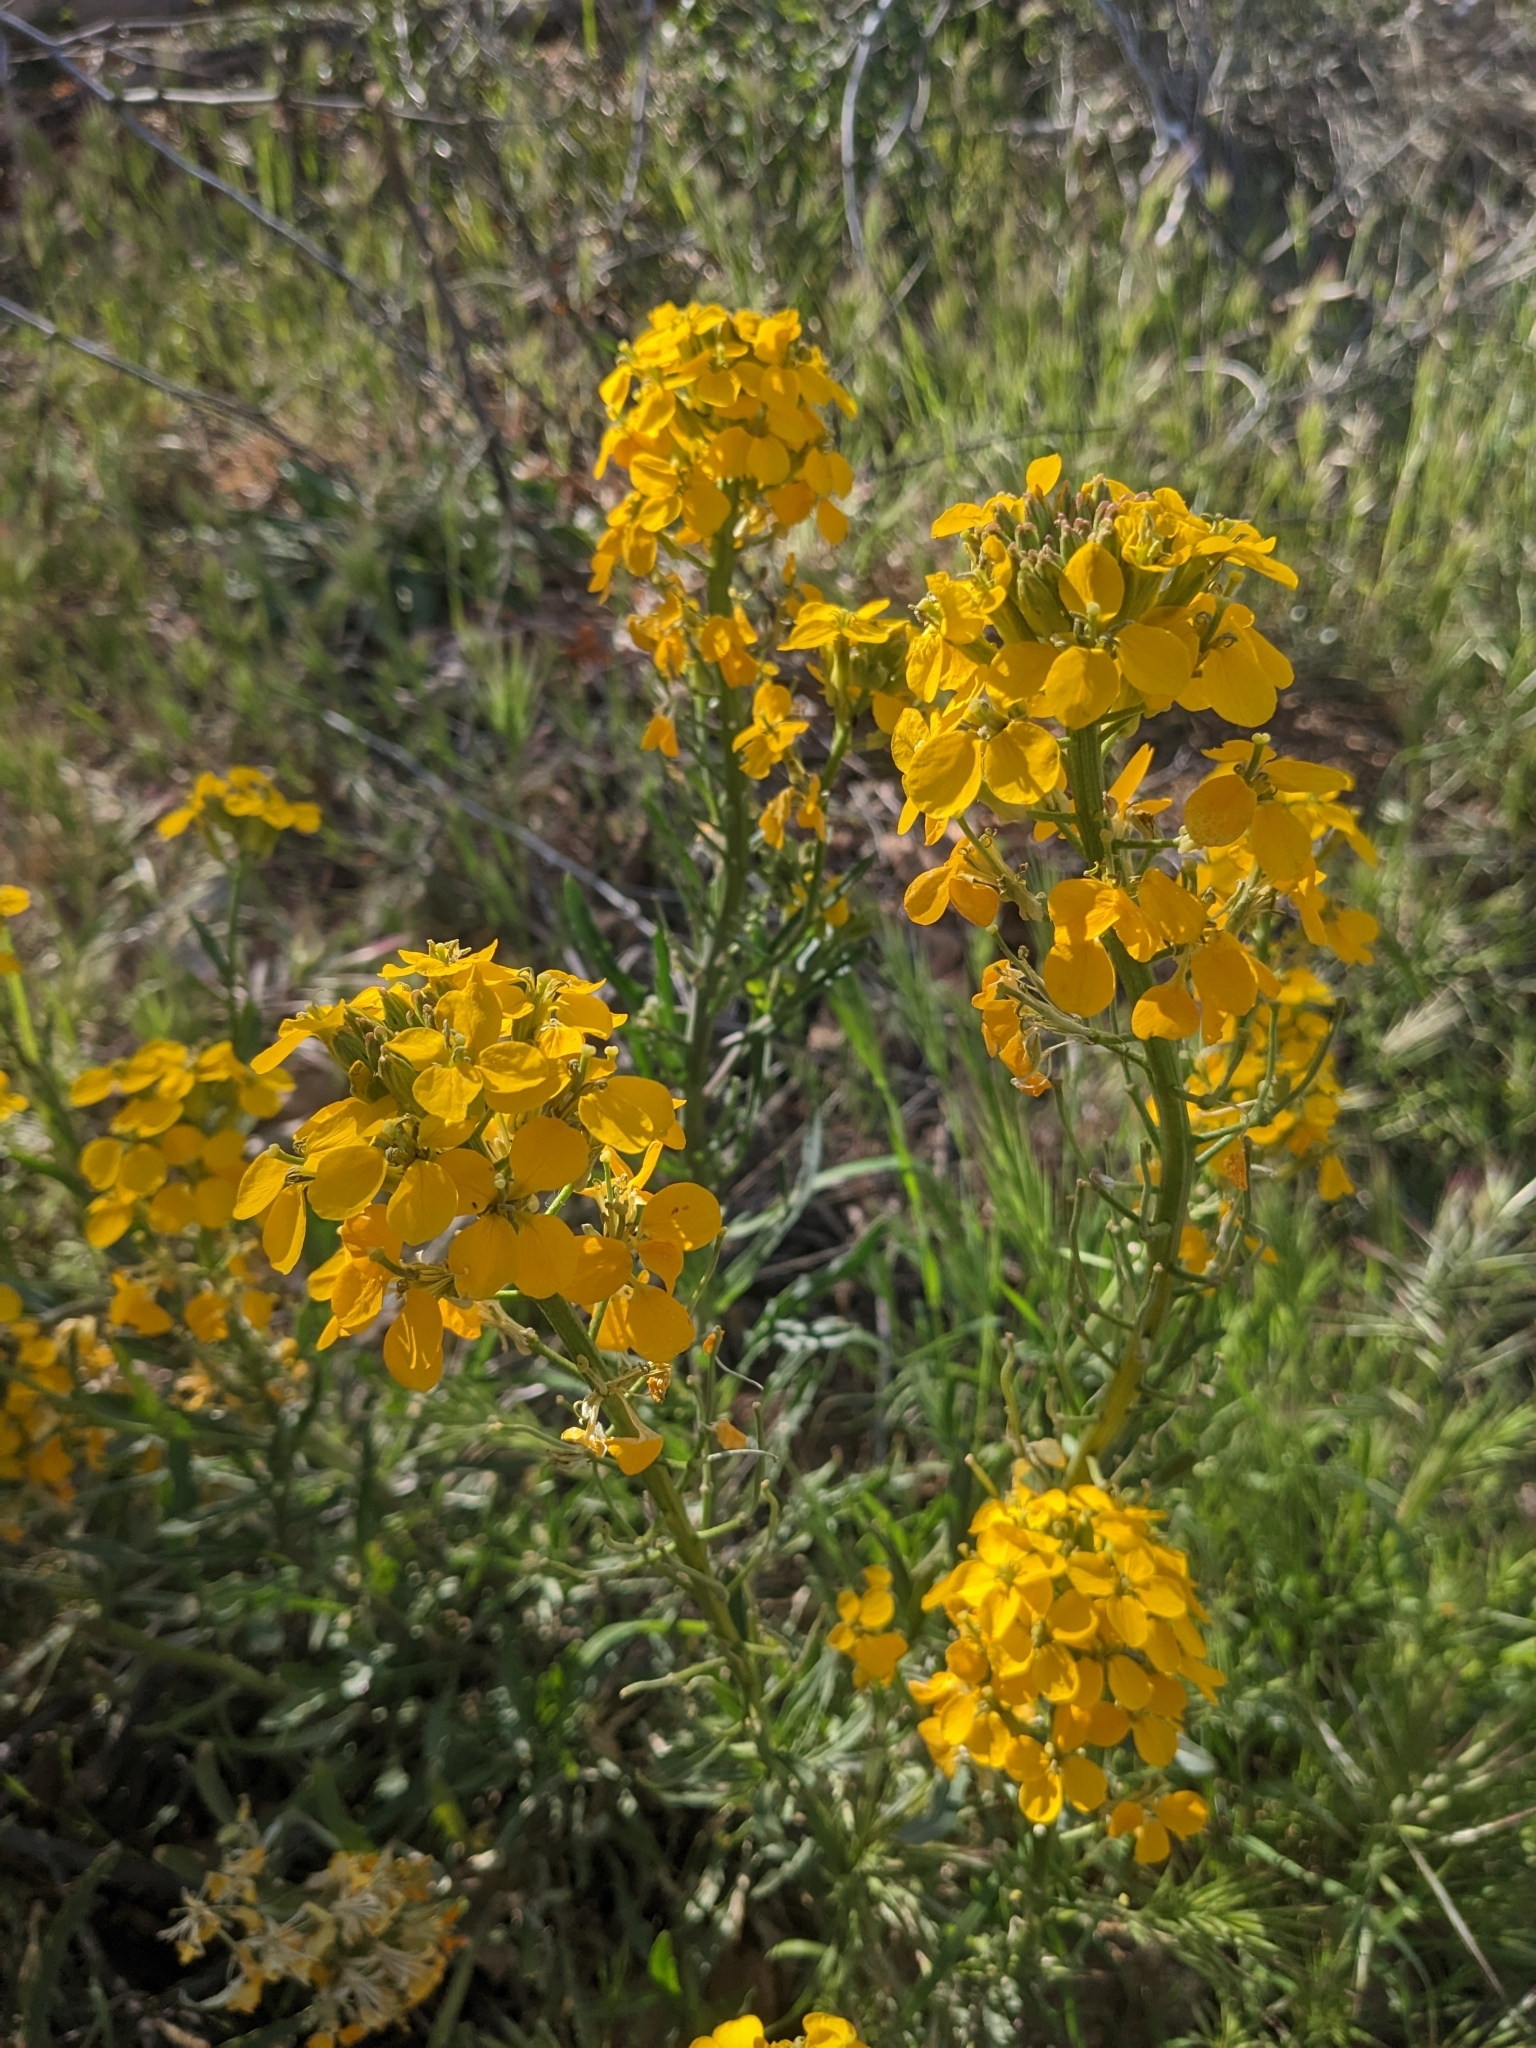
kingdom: Plantae
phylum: Tracheophyta
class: Magnoliopsida
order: Brassicales
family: Brassicaceae
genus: Erysimum
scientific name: Erysimum capitatum
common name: Western wallflower
